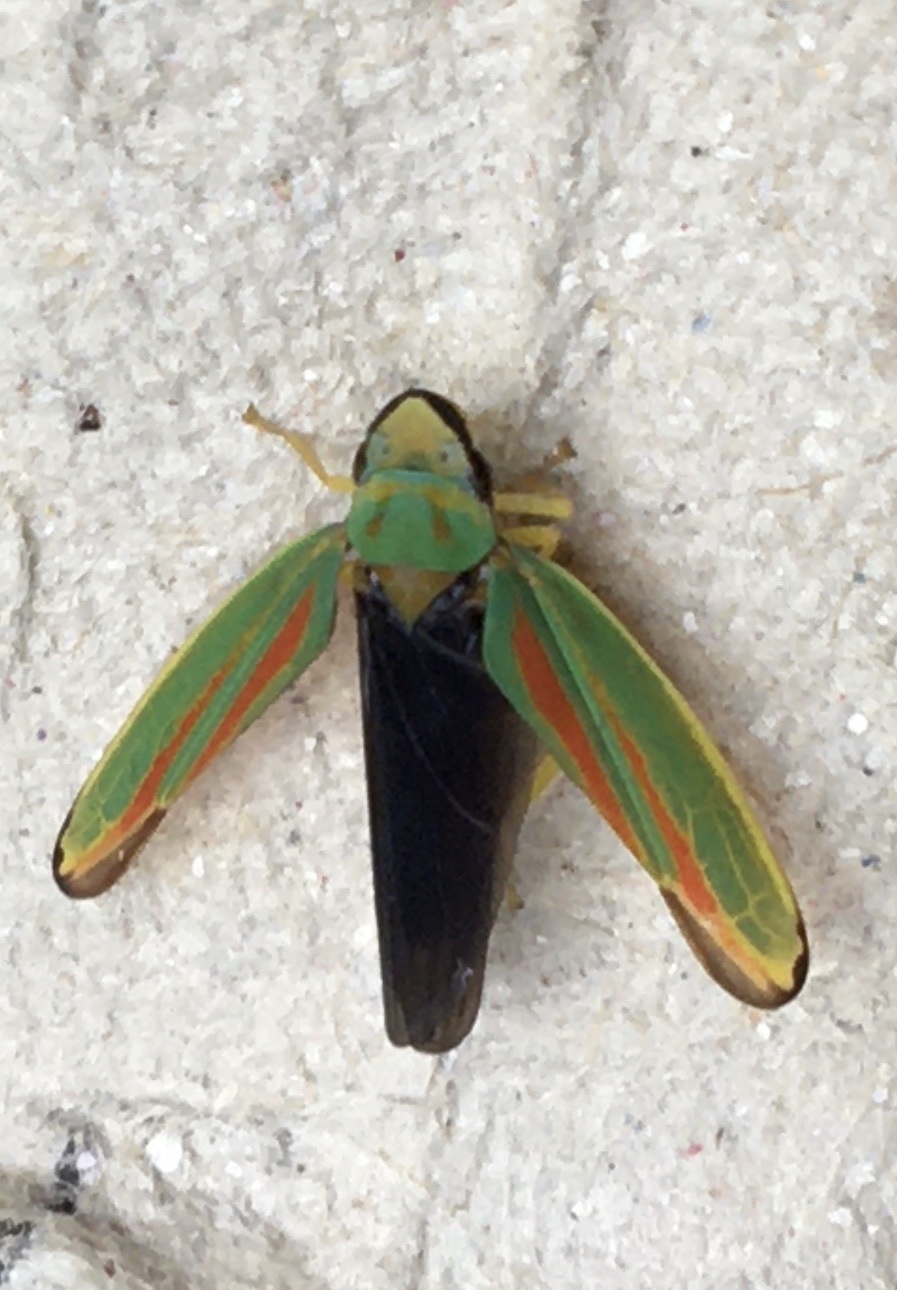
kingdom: Animalia
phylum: Arthropoda
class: Insecta
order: Hemiptera
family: Cicadellidae
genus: Graphocephala
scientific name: Graphocephala fennahi
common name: Rhododendron leafhopper
